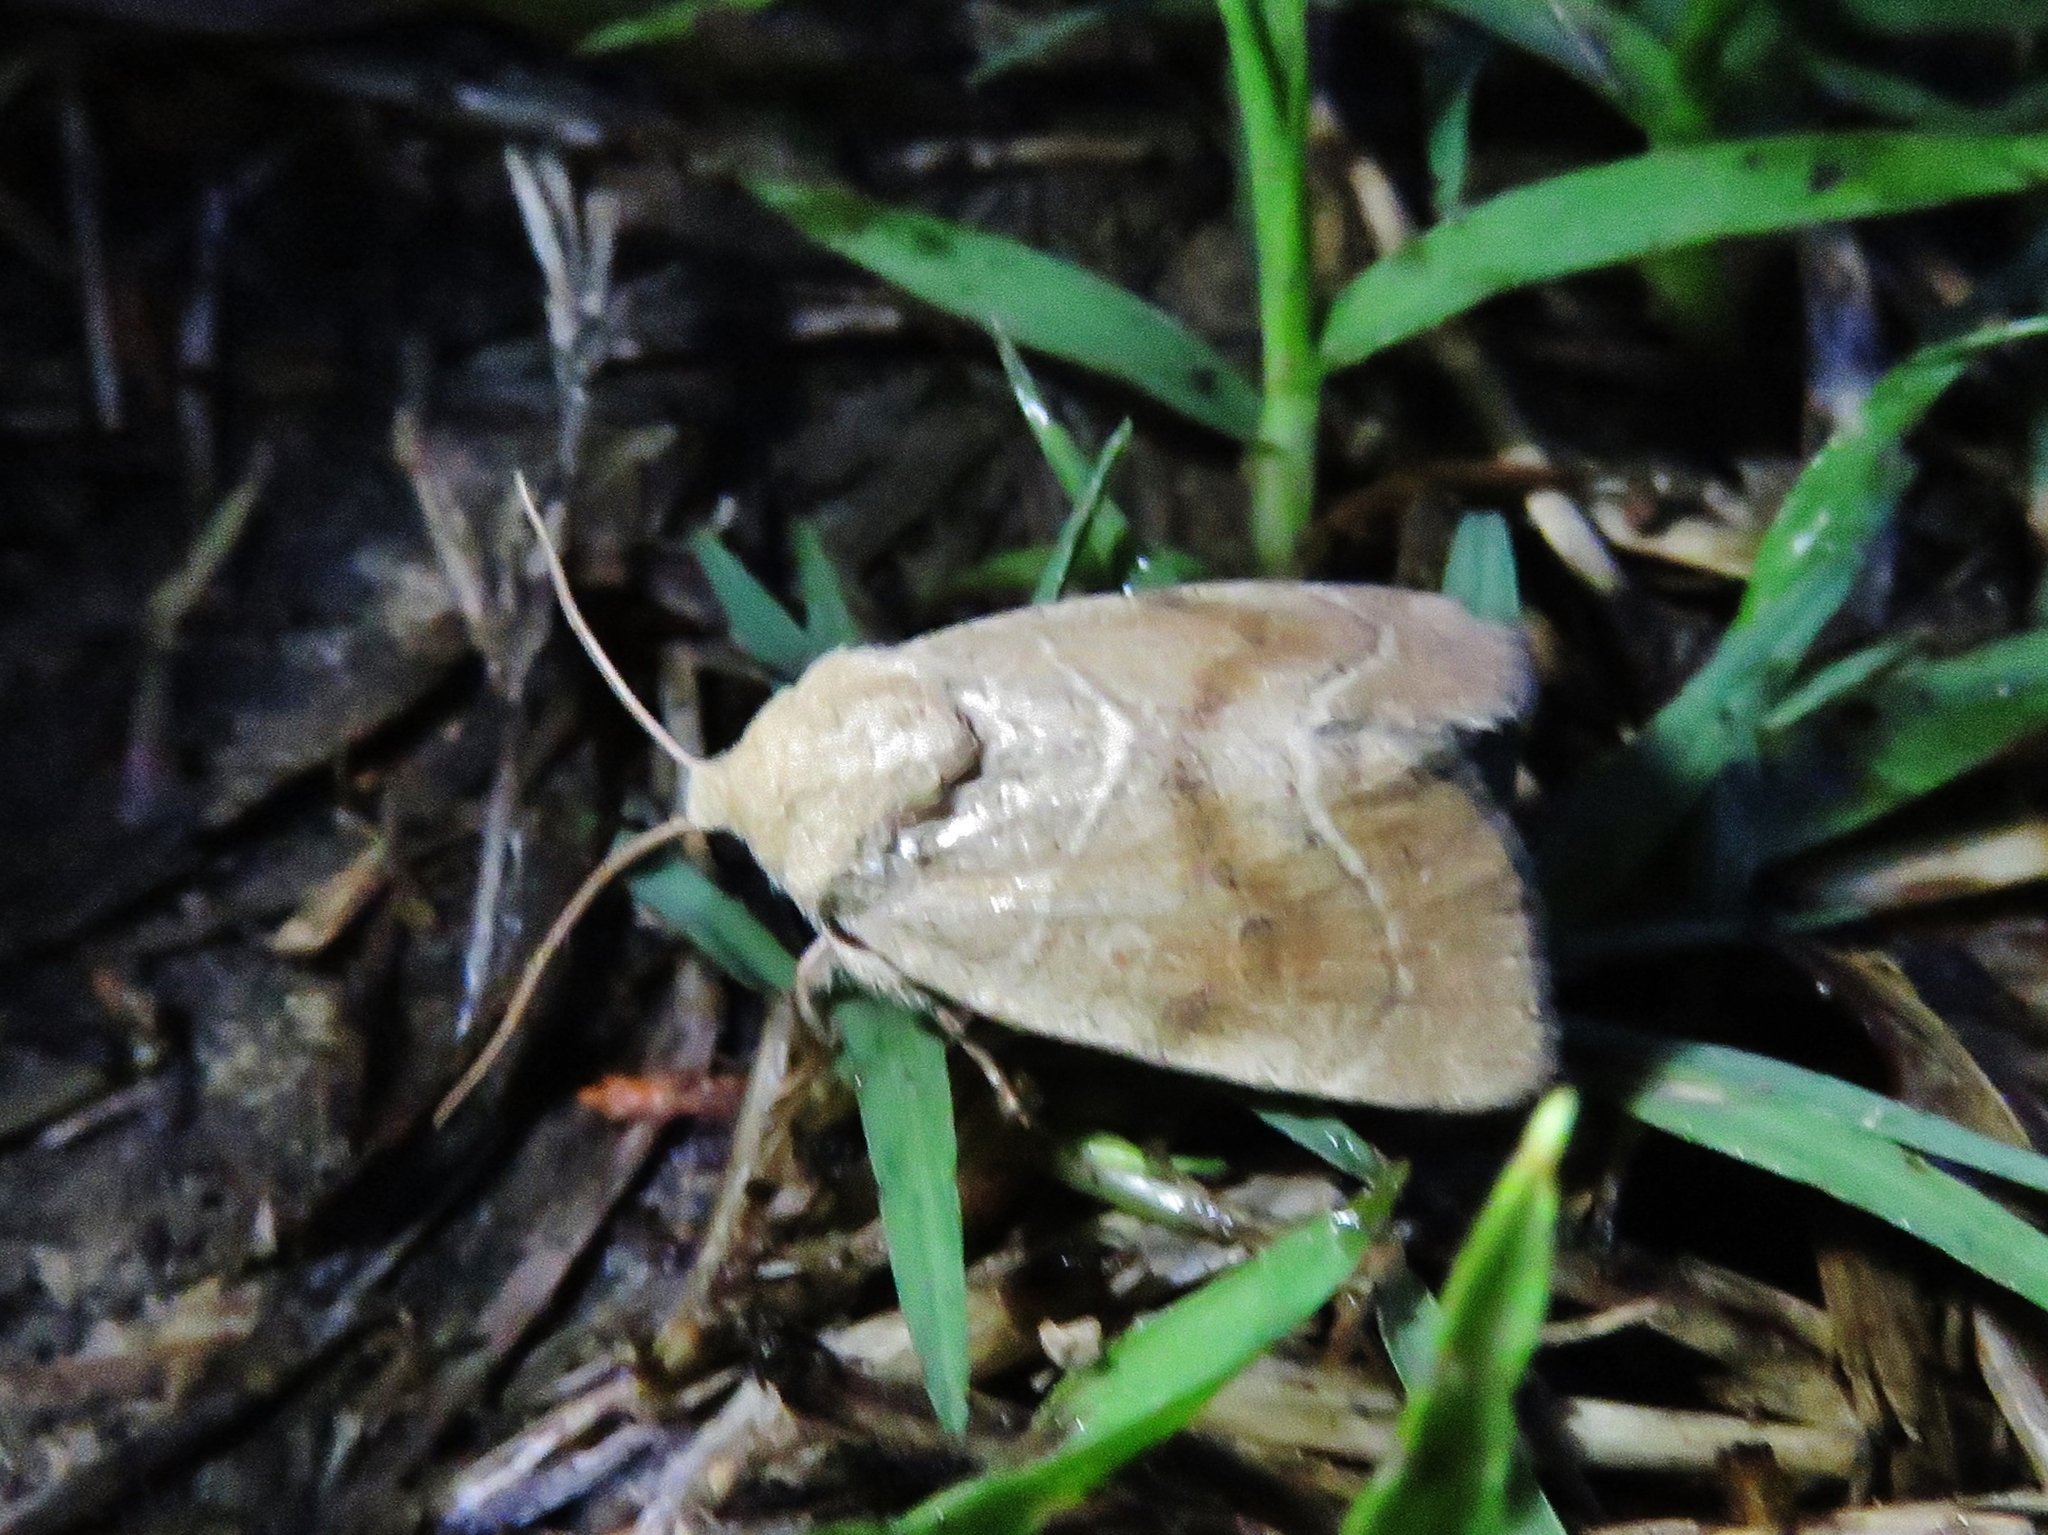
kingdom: Animalia
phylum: Arthropoda
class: Insecta
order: Lepidoptera
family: Noctuidae
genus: Cosmia
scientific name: Cosmia calami
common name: American dun-bar moth
